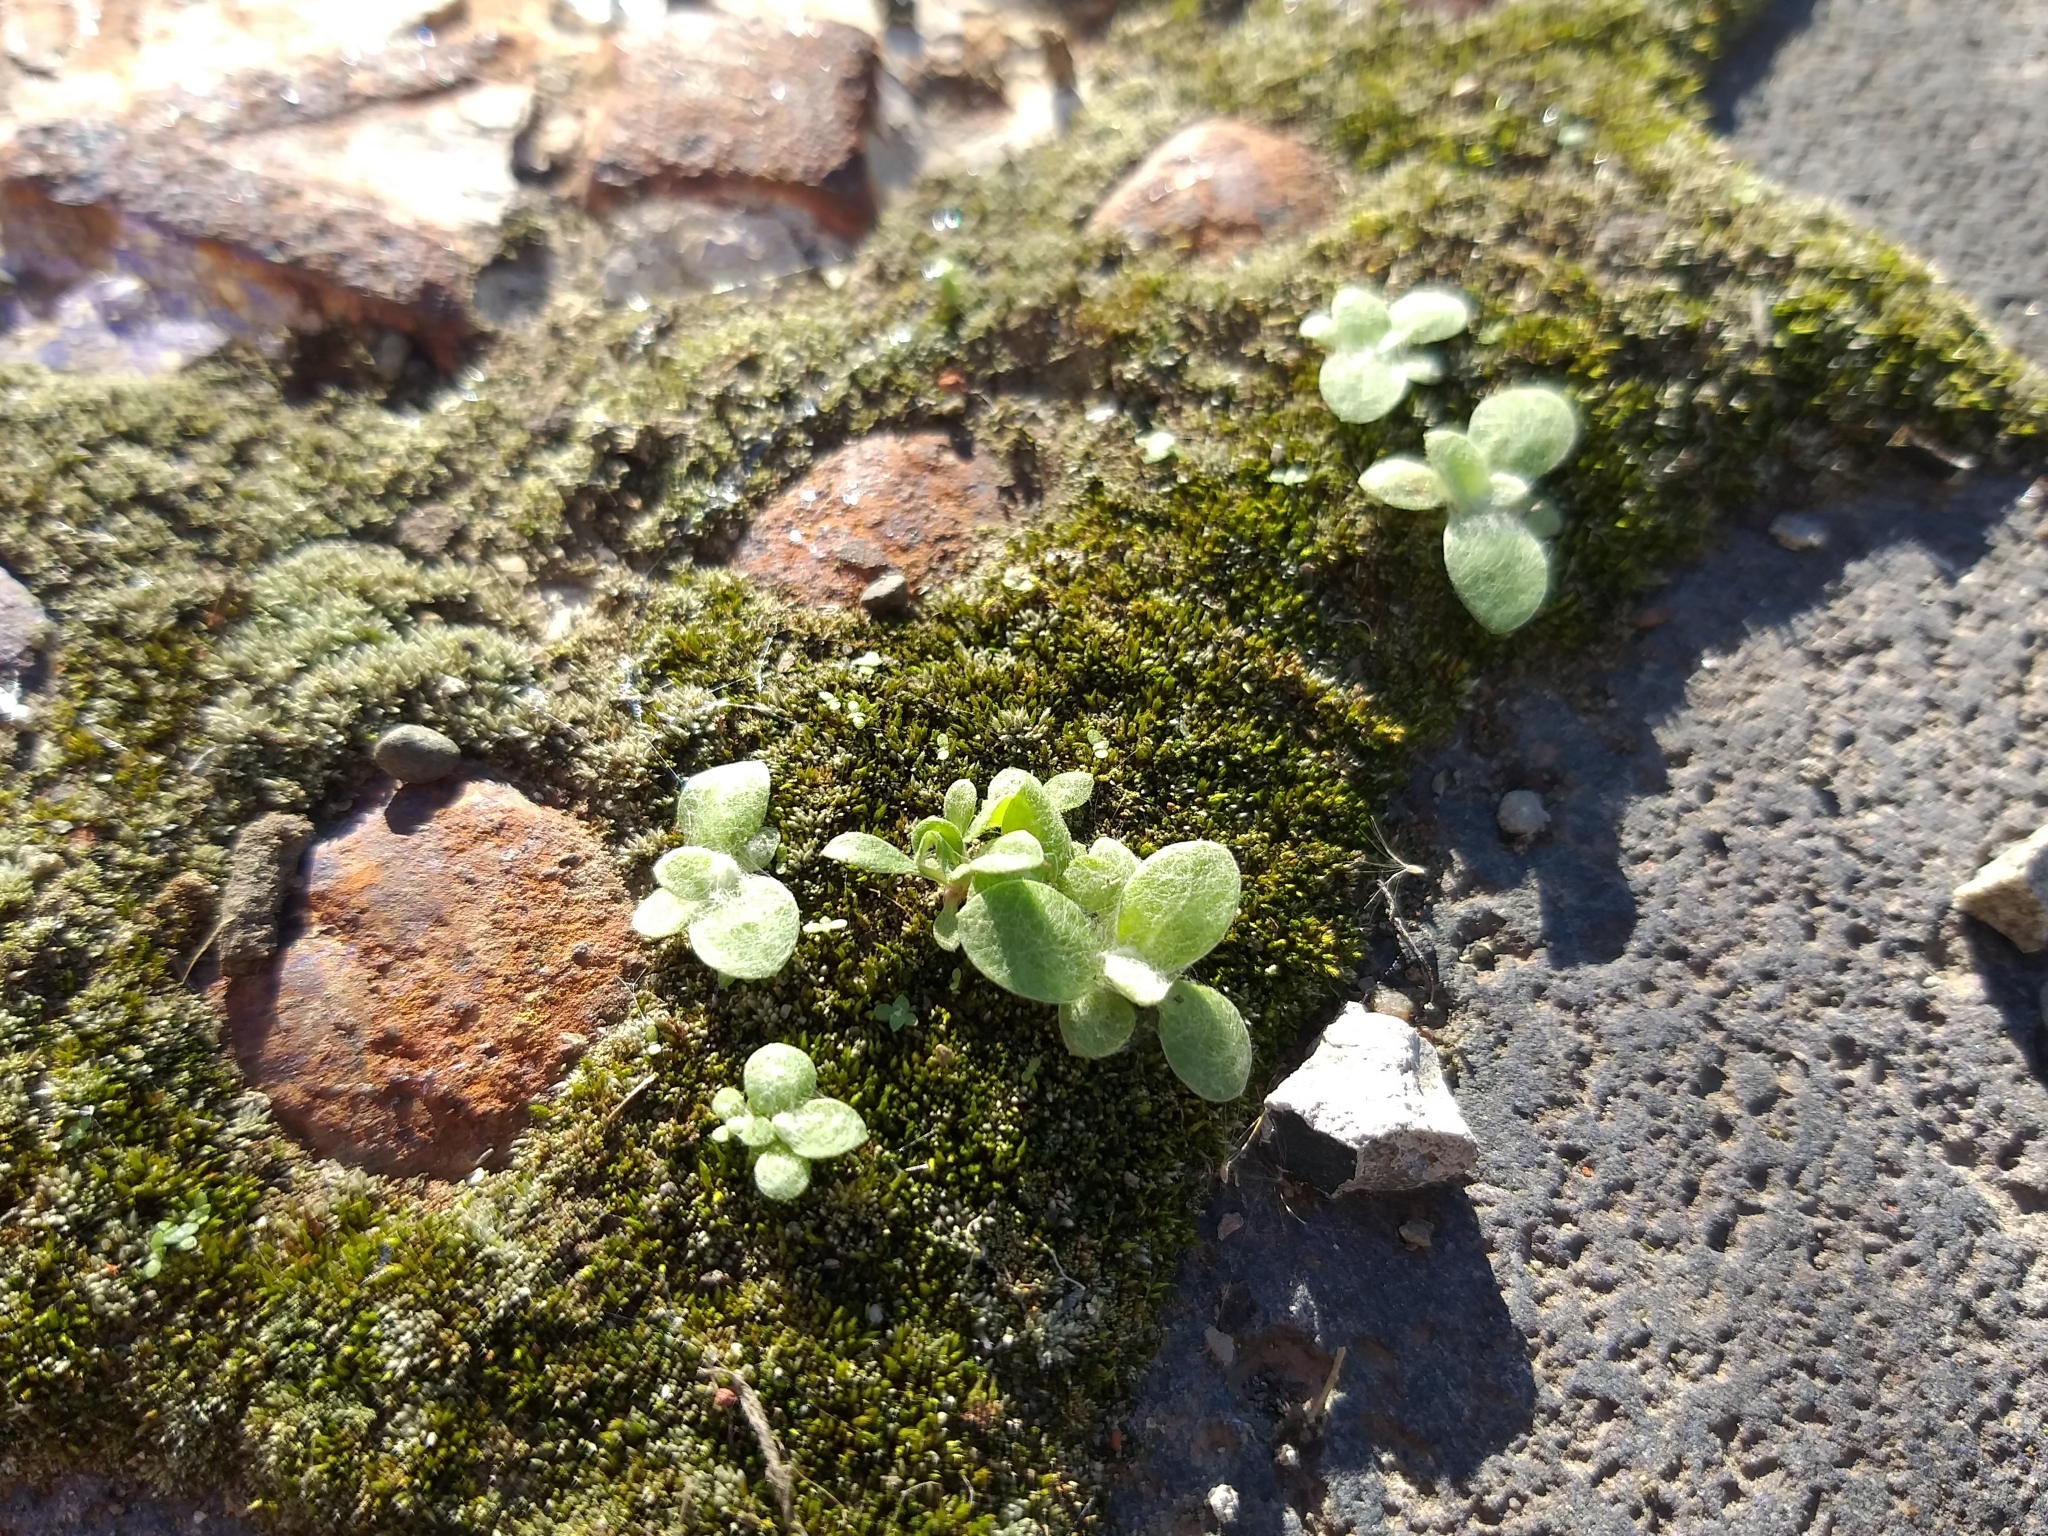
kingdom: Plantae
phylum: Bryophyta
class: Bryopsida
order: Bryales
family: Bryaceae
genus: Bryum
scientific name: Bryum argenteum
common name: Silver-moss
